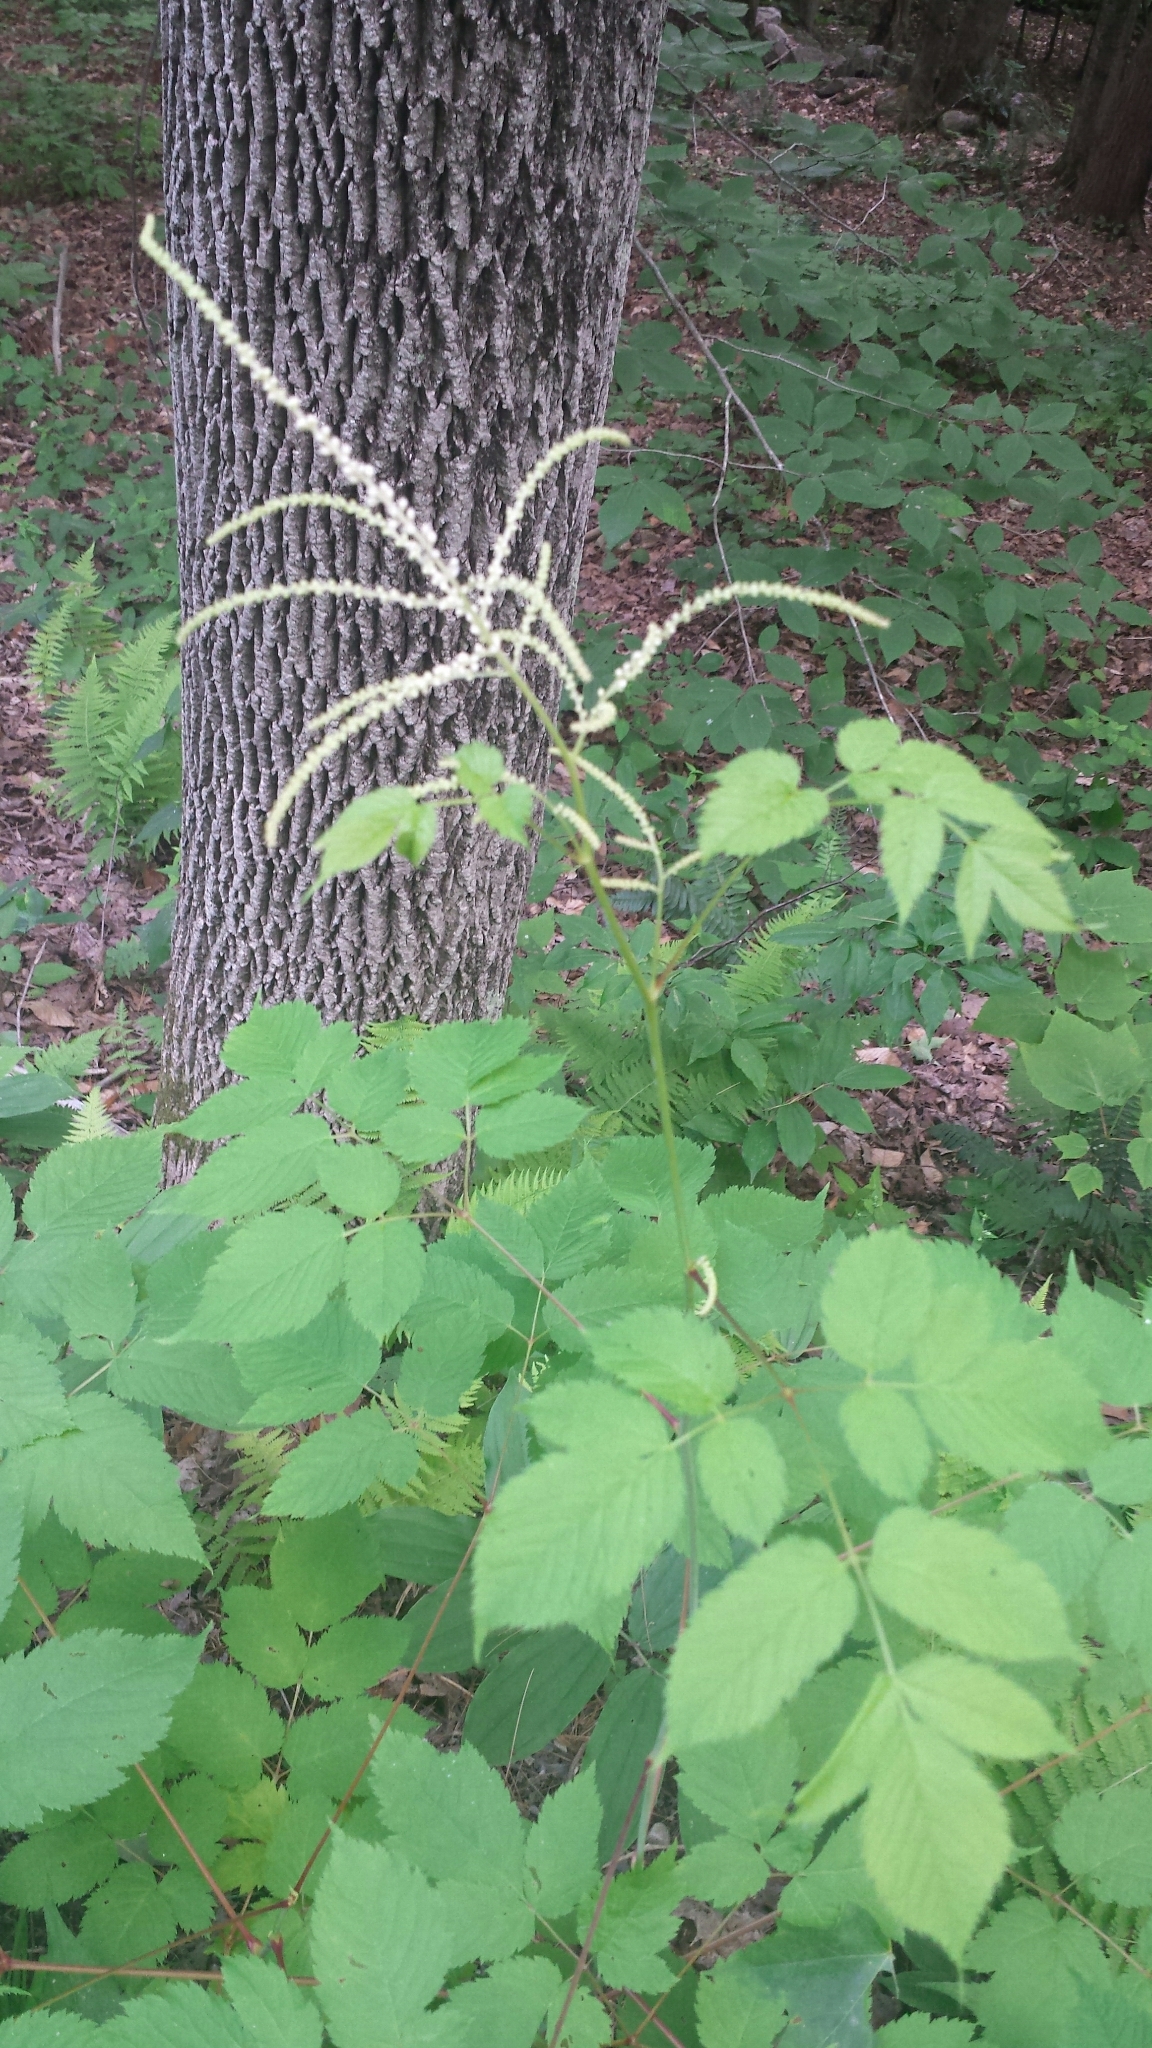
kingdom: Plantae
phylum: Tracheophyta
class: Magnoliopsida
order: Rosales
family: Rosaceae
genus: Aruncus
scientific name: Aruncus dioicus
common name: Buck's-beard
